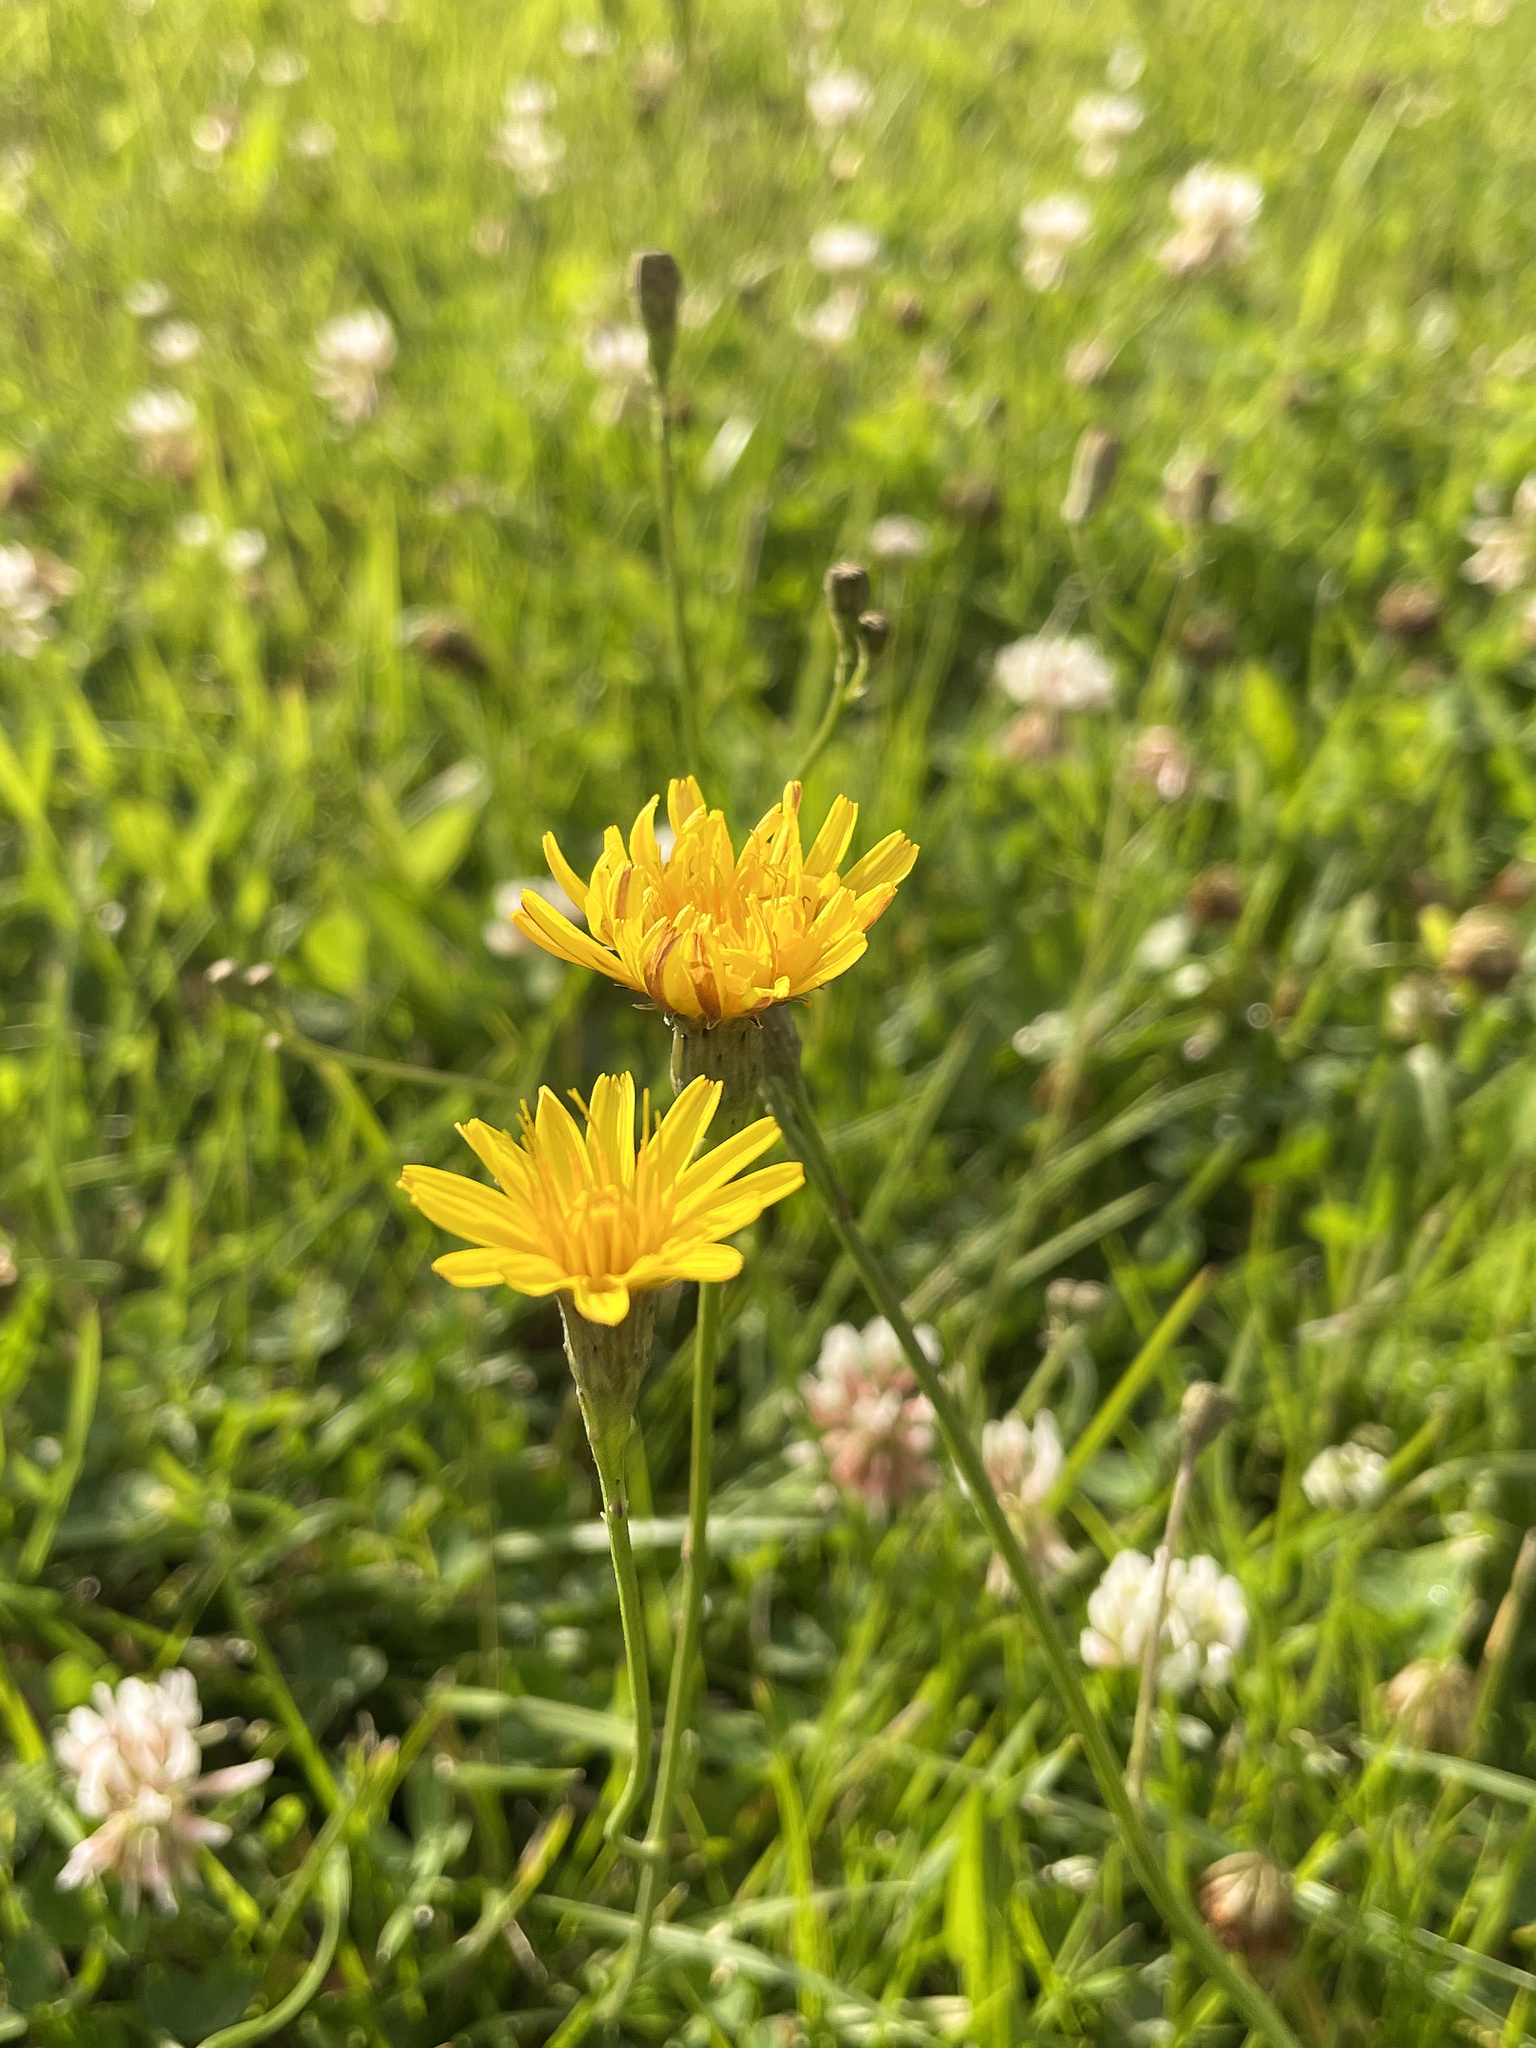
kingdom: Plantae
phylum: Tracheophyta
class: Magnoliopsida
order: Asterales
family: Asteraceae
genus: Scorzoneroides
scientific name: Scorzoneroides autumnalis
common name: Autumn hawkbit
